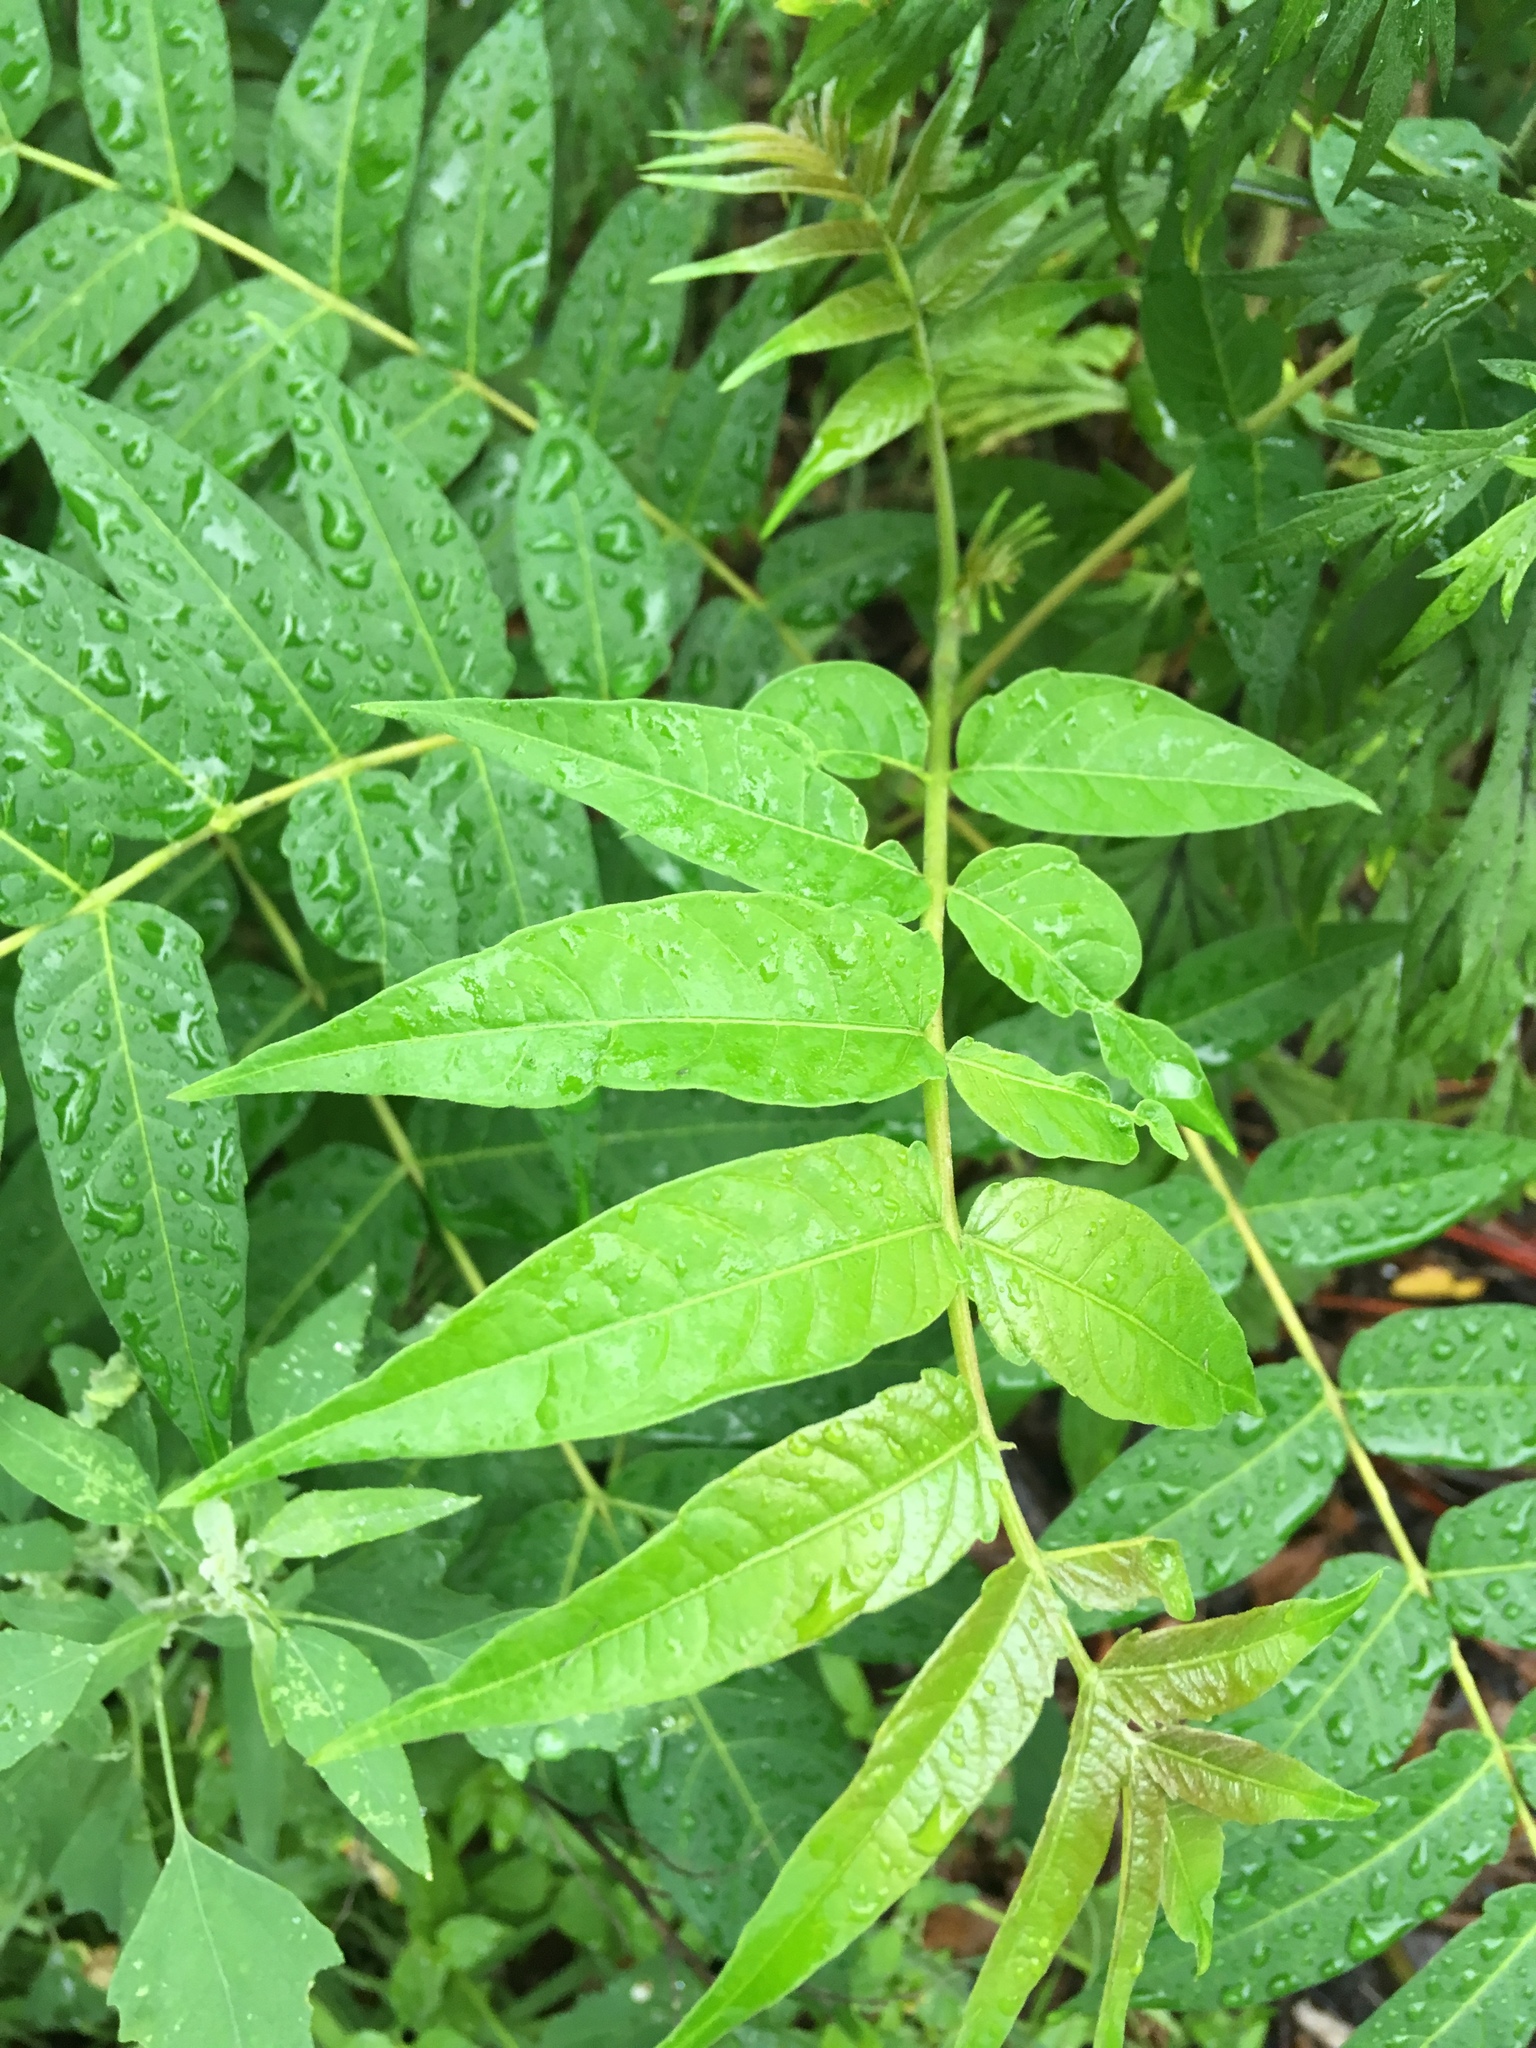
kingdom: Plantae
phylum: Tracheophyta
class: Magnoliopsida
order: Sapindales
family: Simaroubaceae
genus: Ailanthus
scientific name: Ailanthus altissima
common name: Tree-of-heaven
